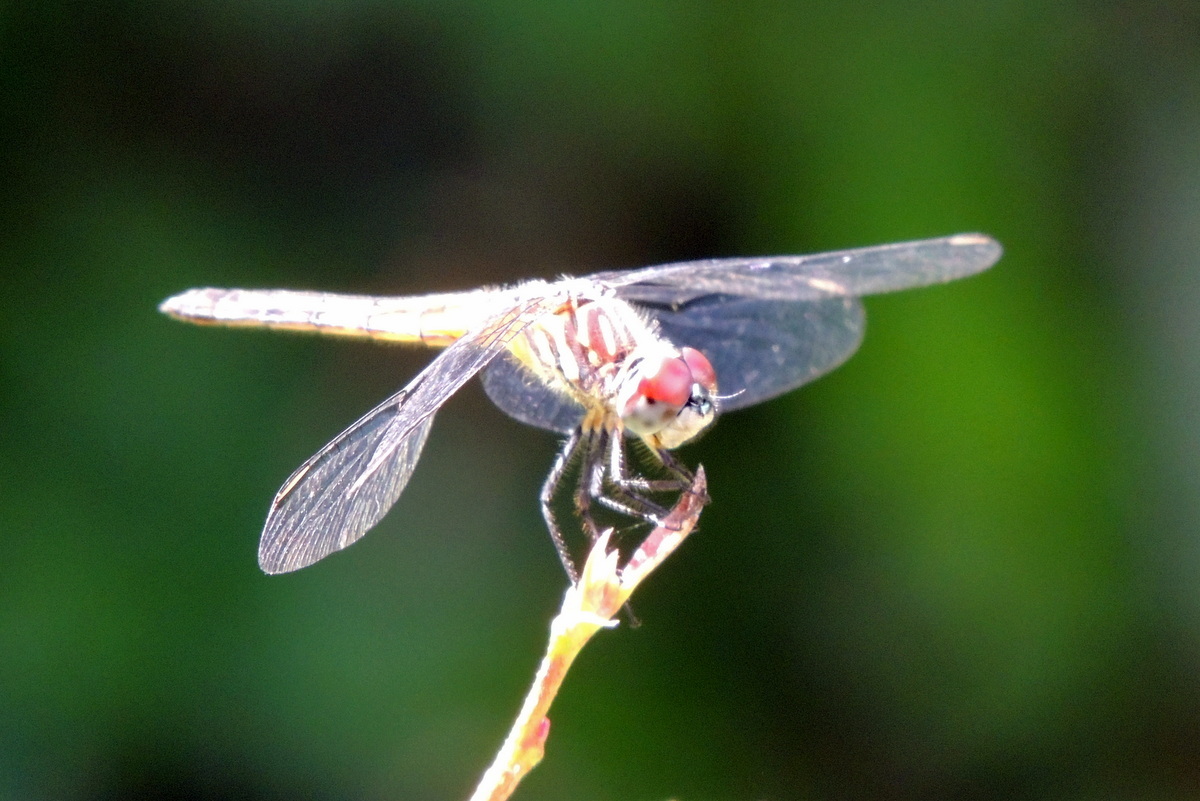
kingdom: Animalia
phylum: Arthropoda
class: Insecta
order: Odonata
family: Libellulidae
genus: Pachydiplax
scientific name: Pachydiplax longipennis
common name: Blue dasher
